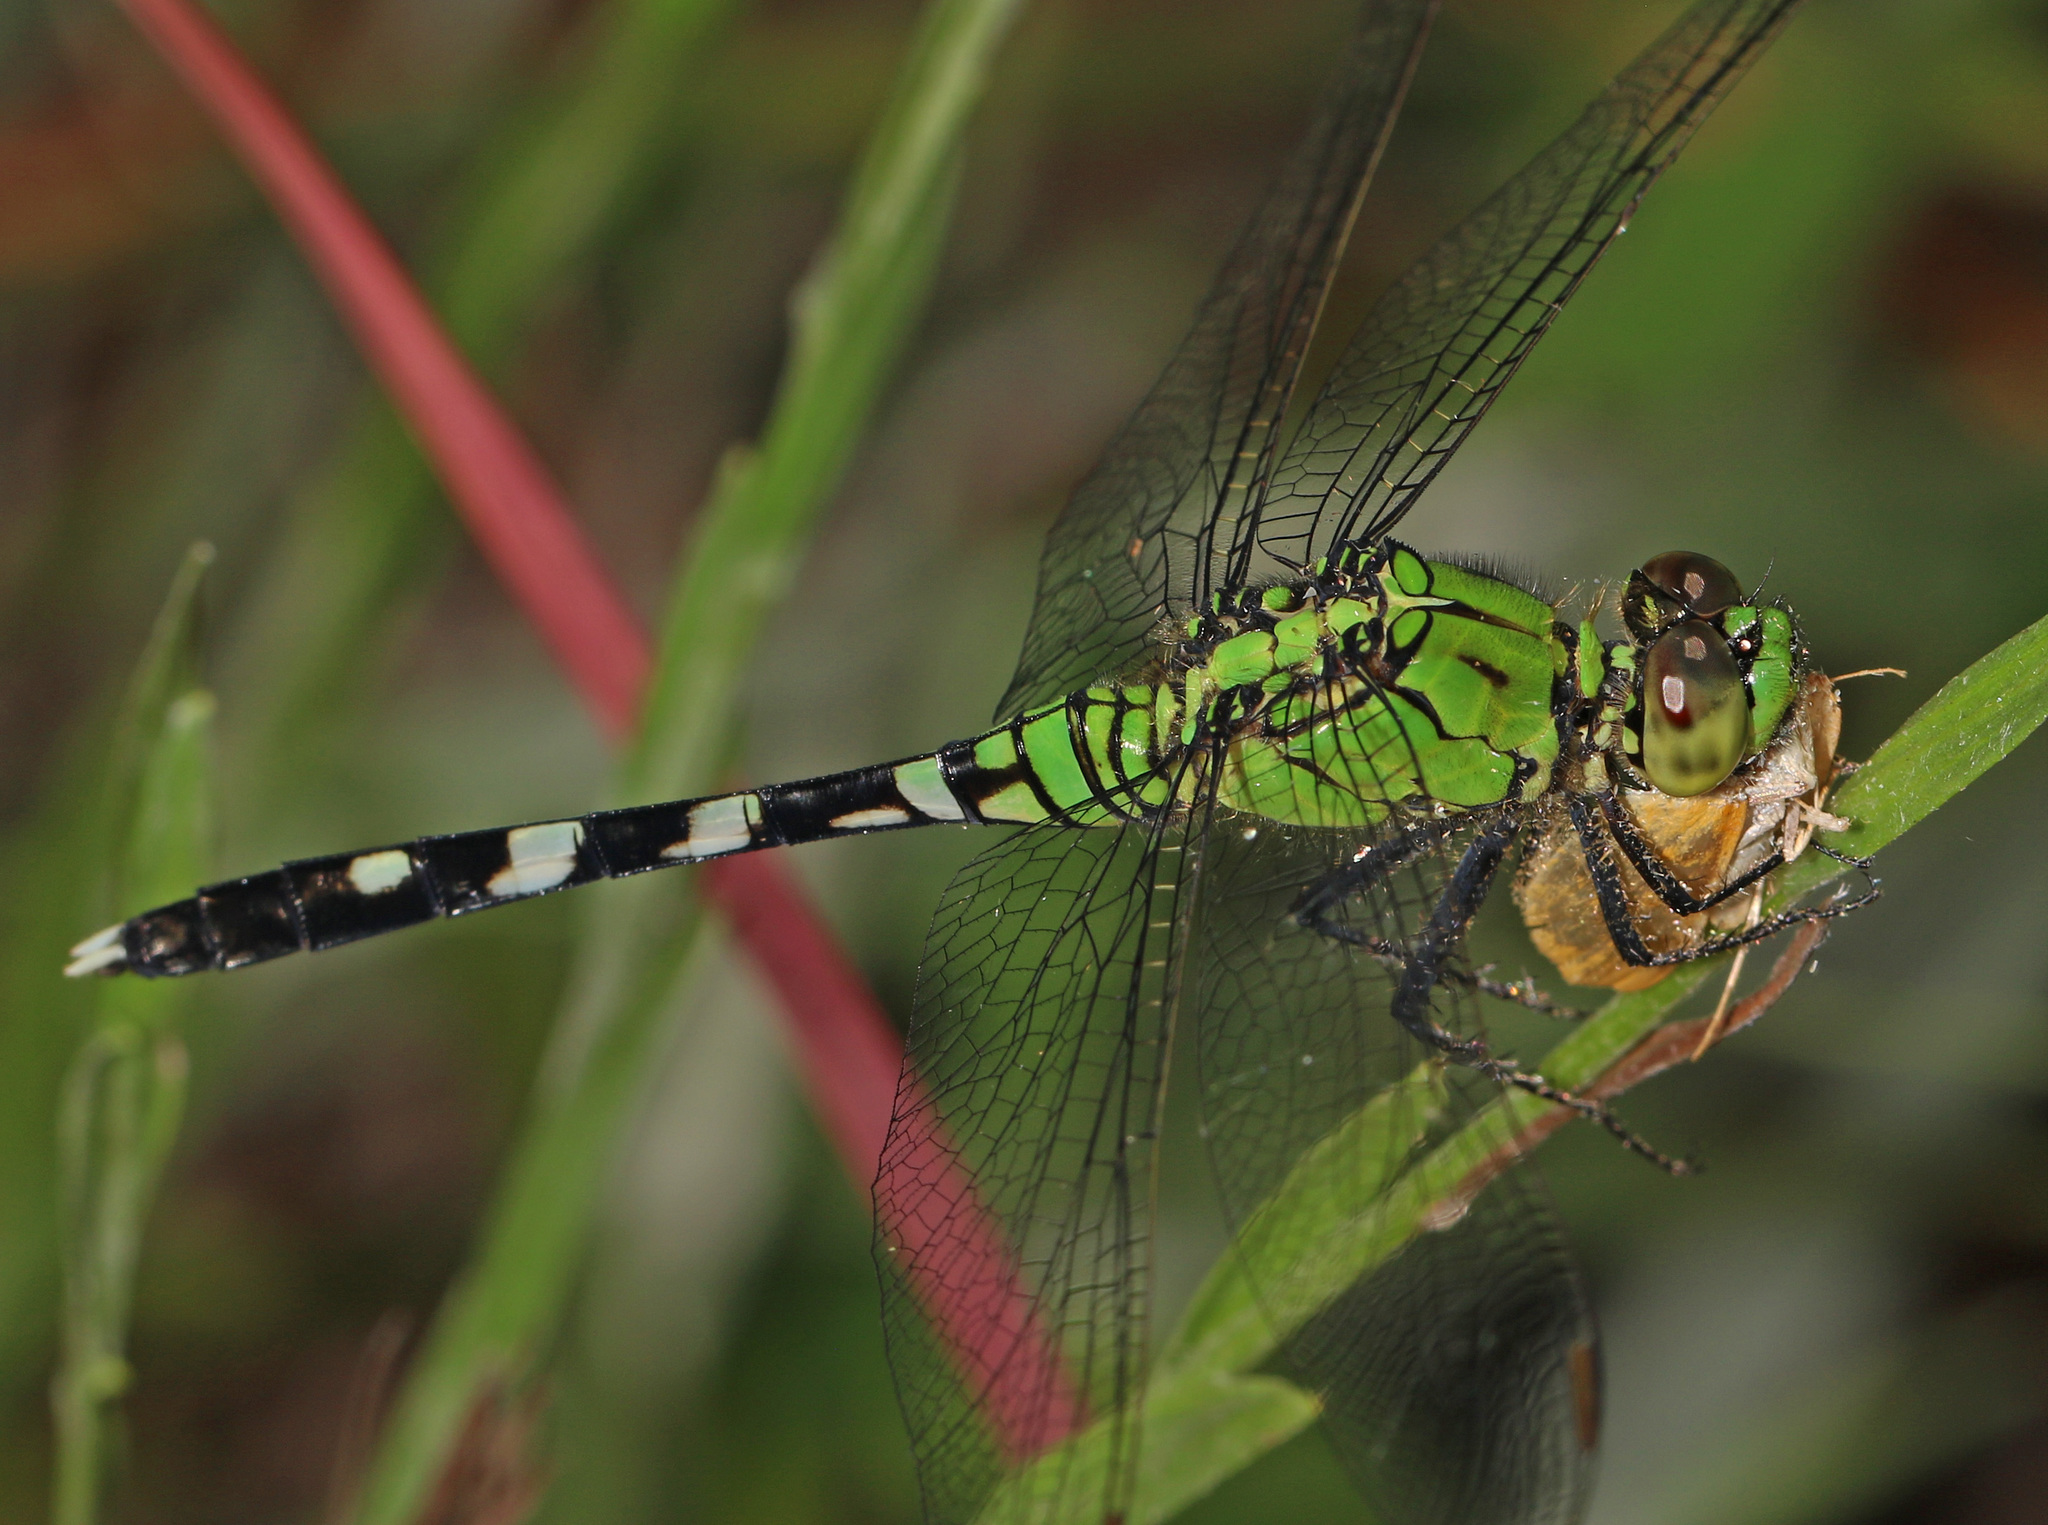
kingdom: Animalia
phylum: Arthropoda
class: Insecta
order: Odonata
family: Libellulidae
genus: Erythemis
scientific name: Erythemis simplicicollis
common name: Eastern pondhawk
